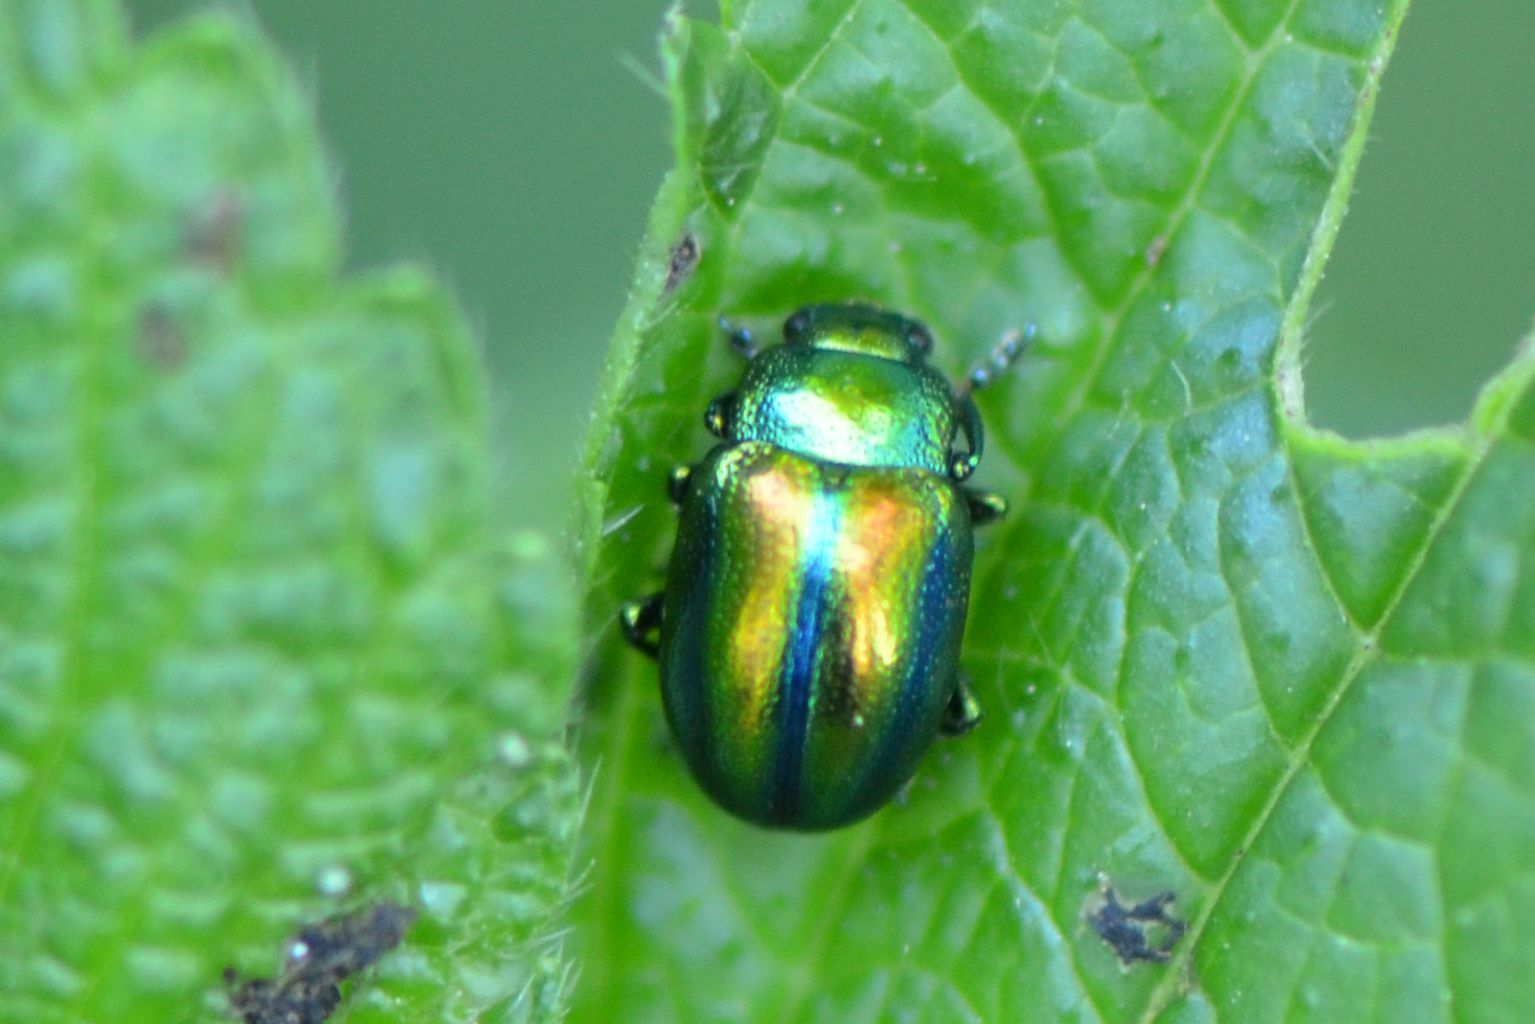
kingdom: Animalia
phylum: Arthropoda
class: Insecta
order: Coleoptera
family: Chrysomelidae
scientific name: Chrysomelidae
